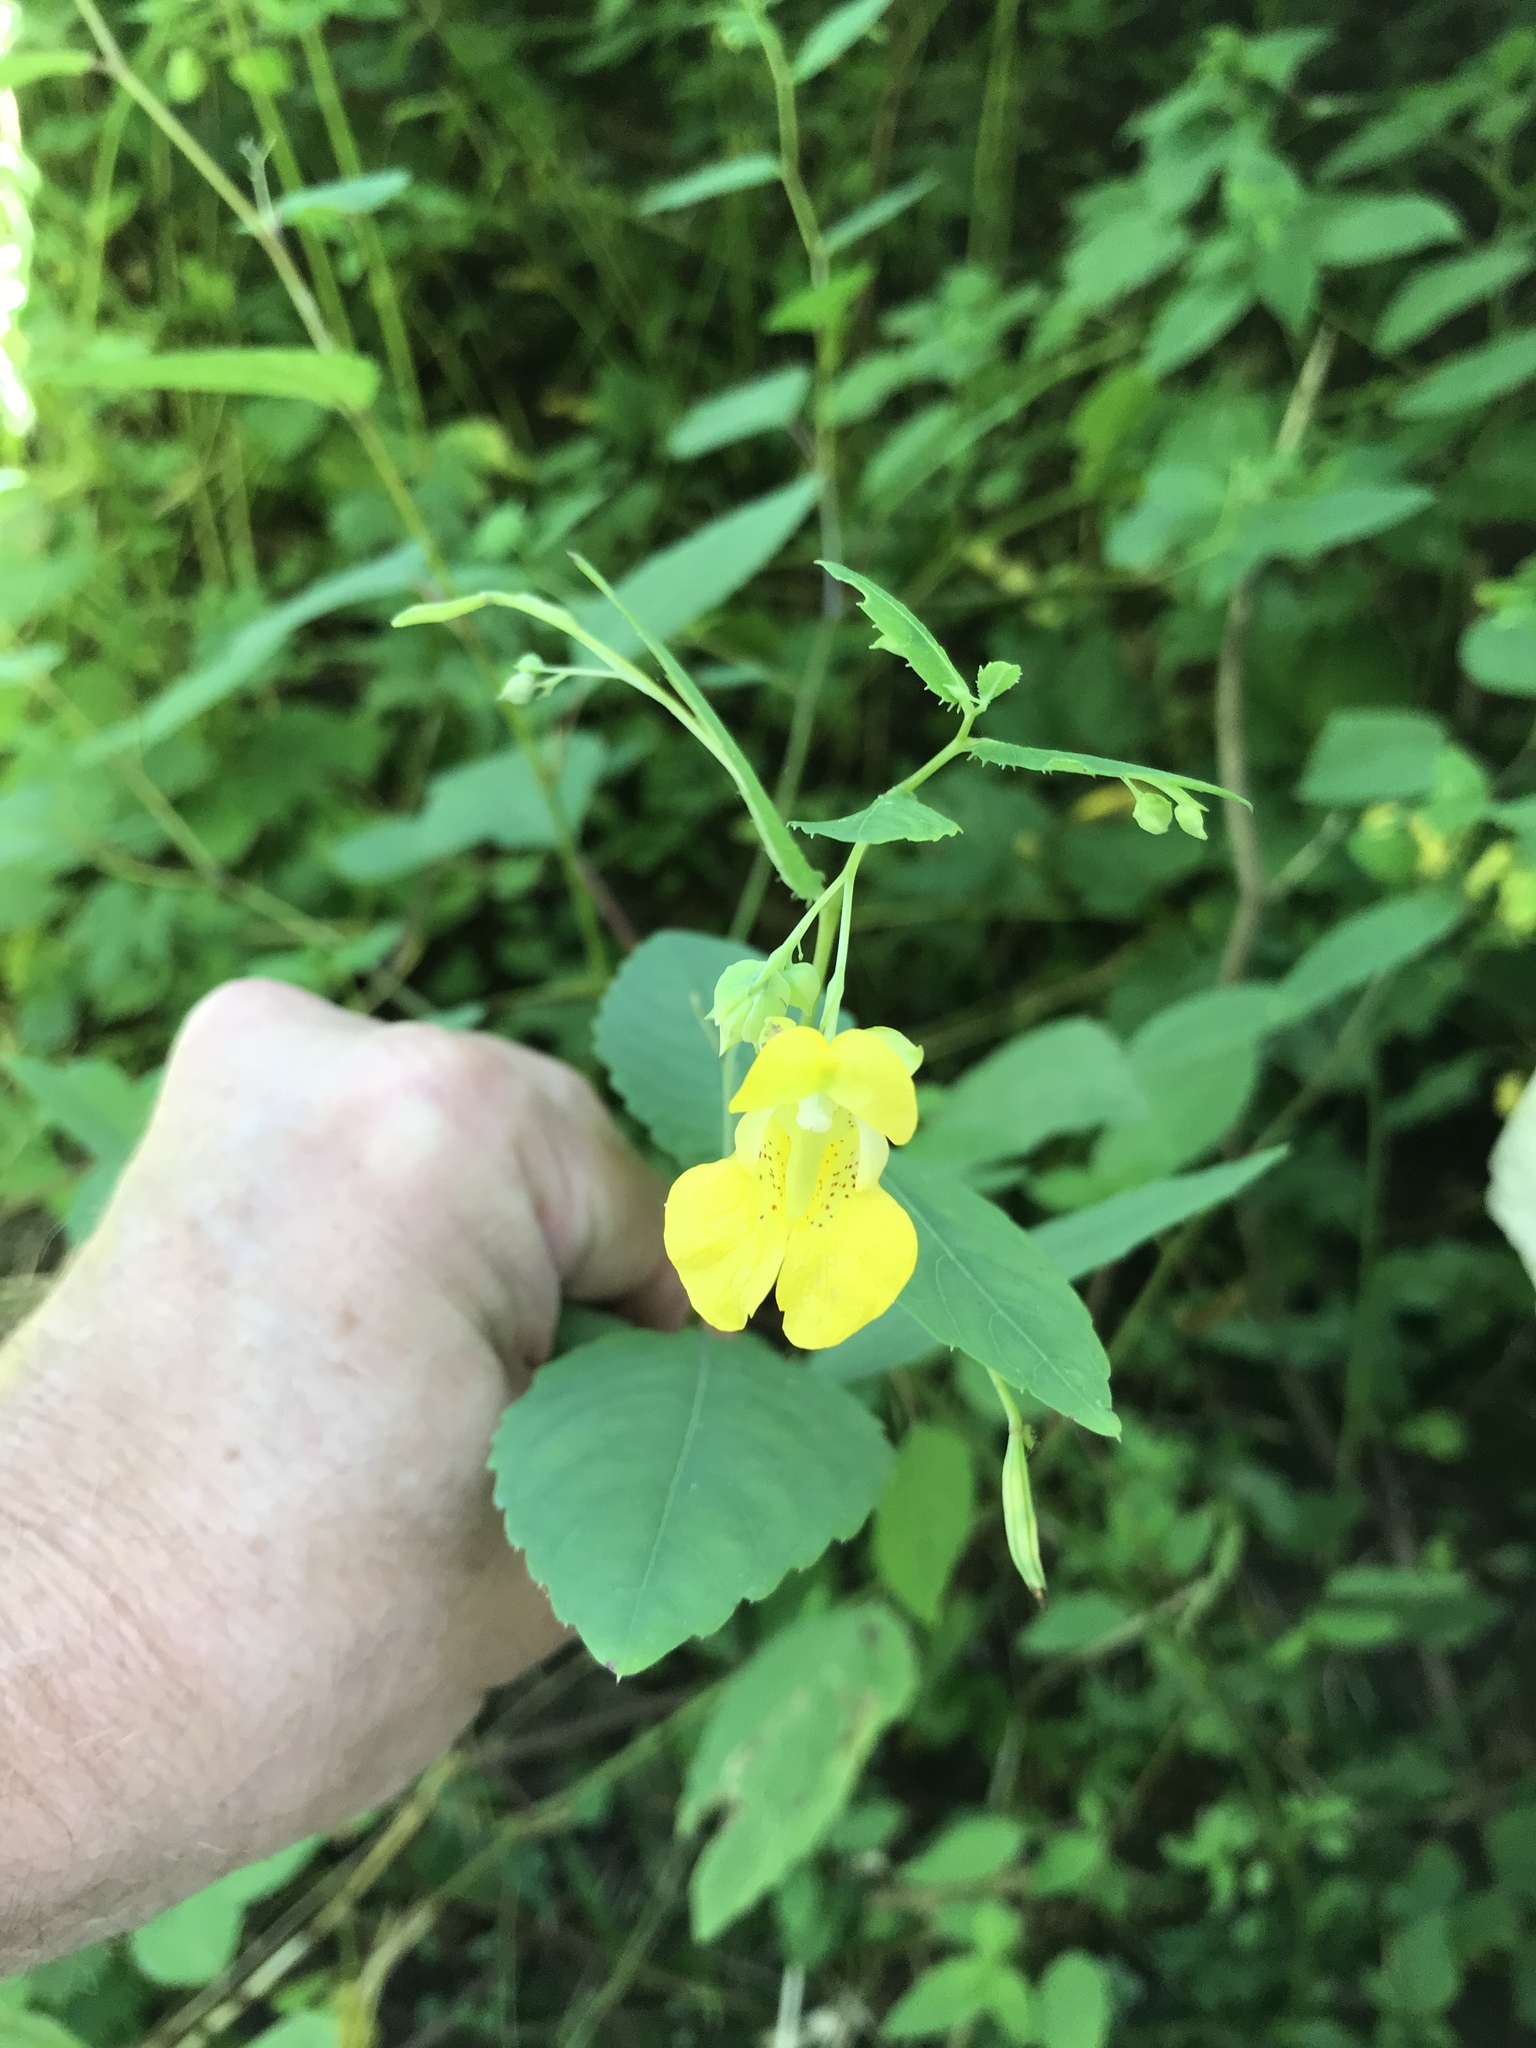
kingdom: Plantae
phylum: Tracheophyta
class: Magnoliopsida
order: Ericales
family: Balsaminaceae
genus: Impatiens
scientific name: Impatiens pallida
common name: Pale snapweed
